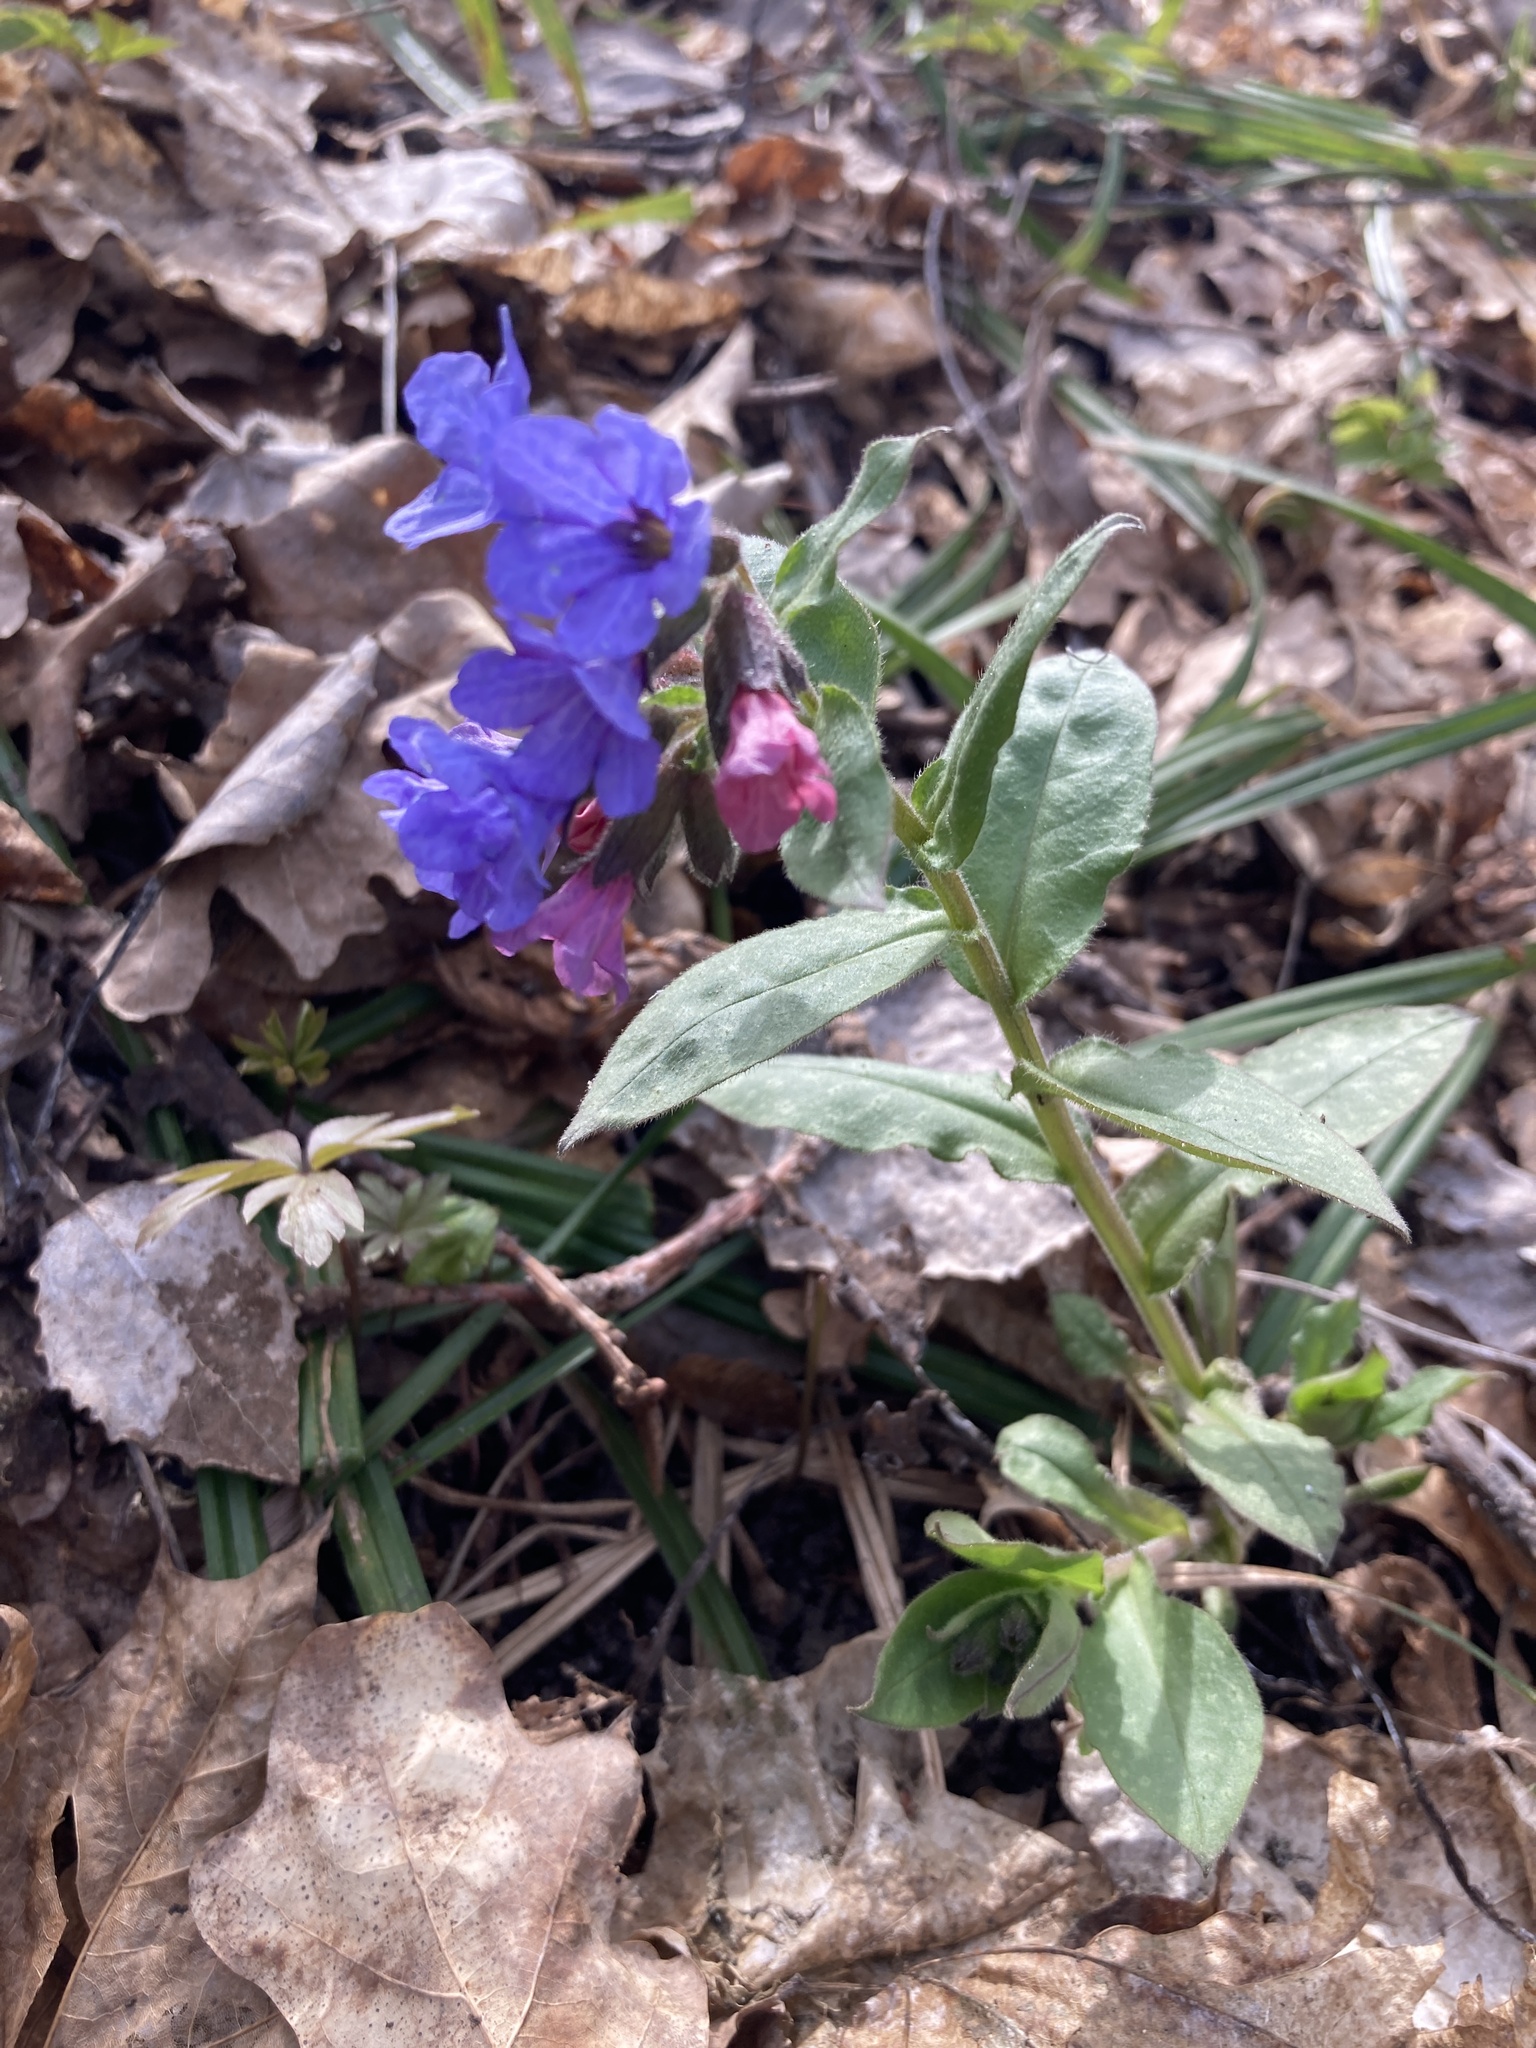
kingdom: Plantae
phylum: Tracheophyta
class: Magnoliopsida
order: Boraginales
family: Boraginaceae
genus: Pulmonaria
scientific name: Pulmonaria obscura
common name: Suffolk lungwort
